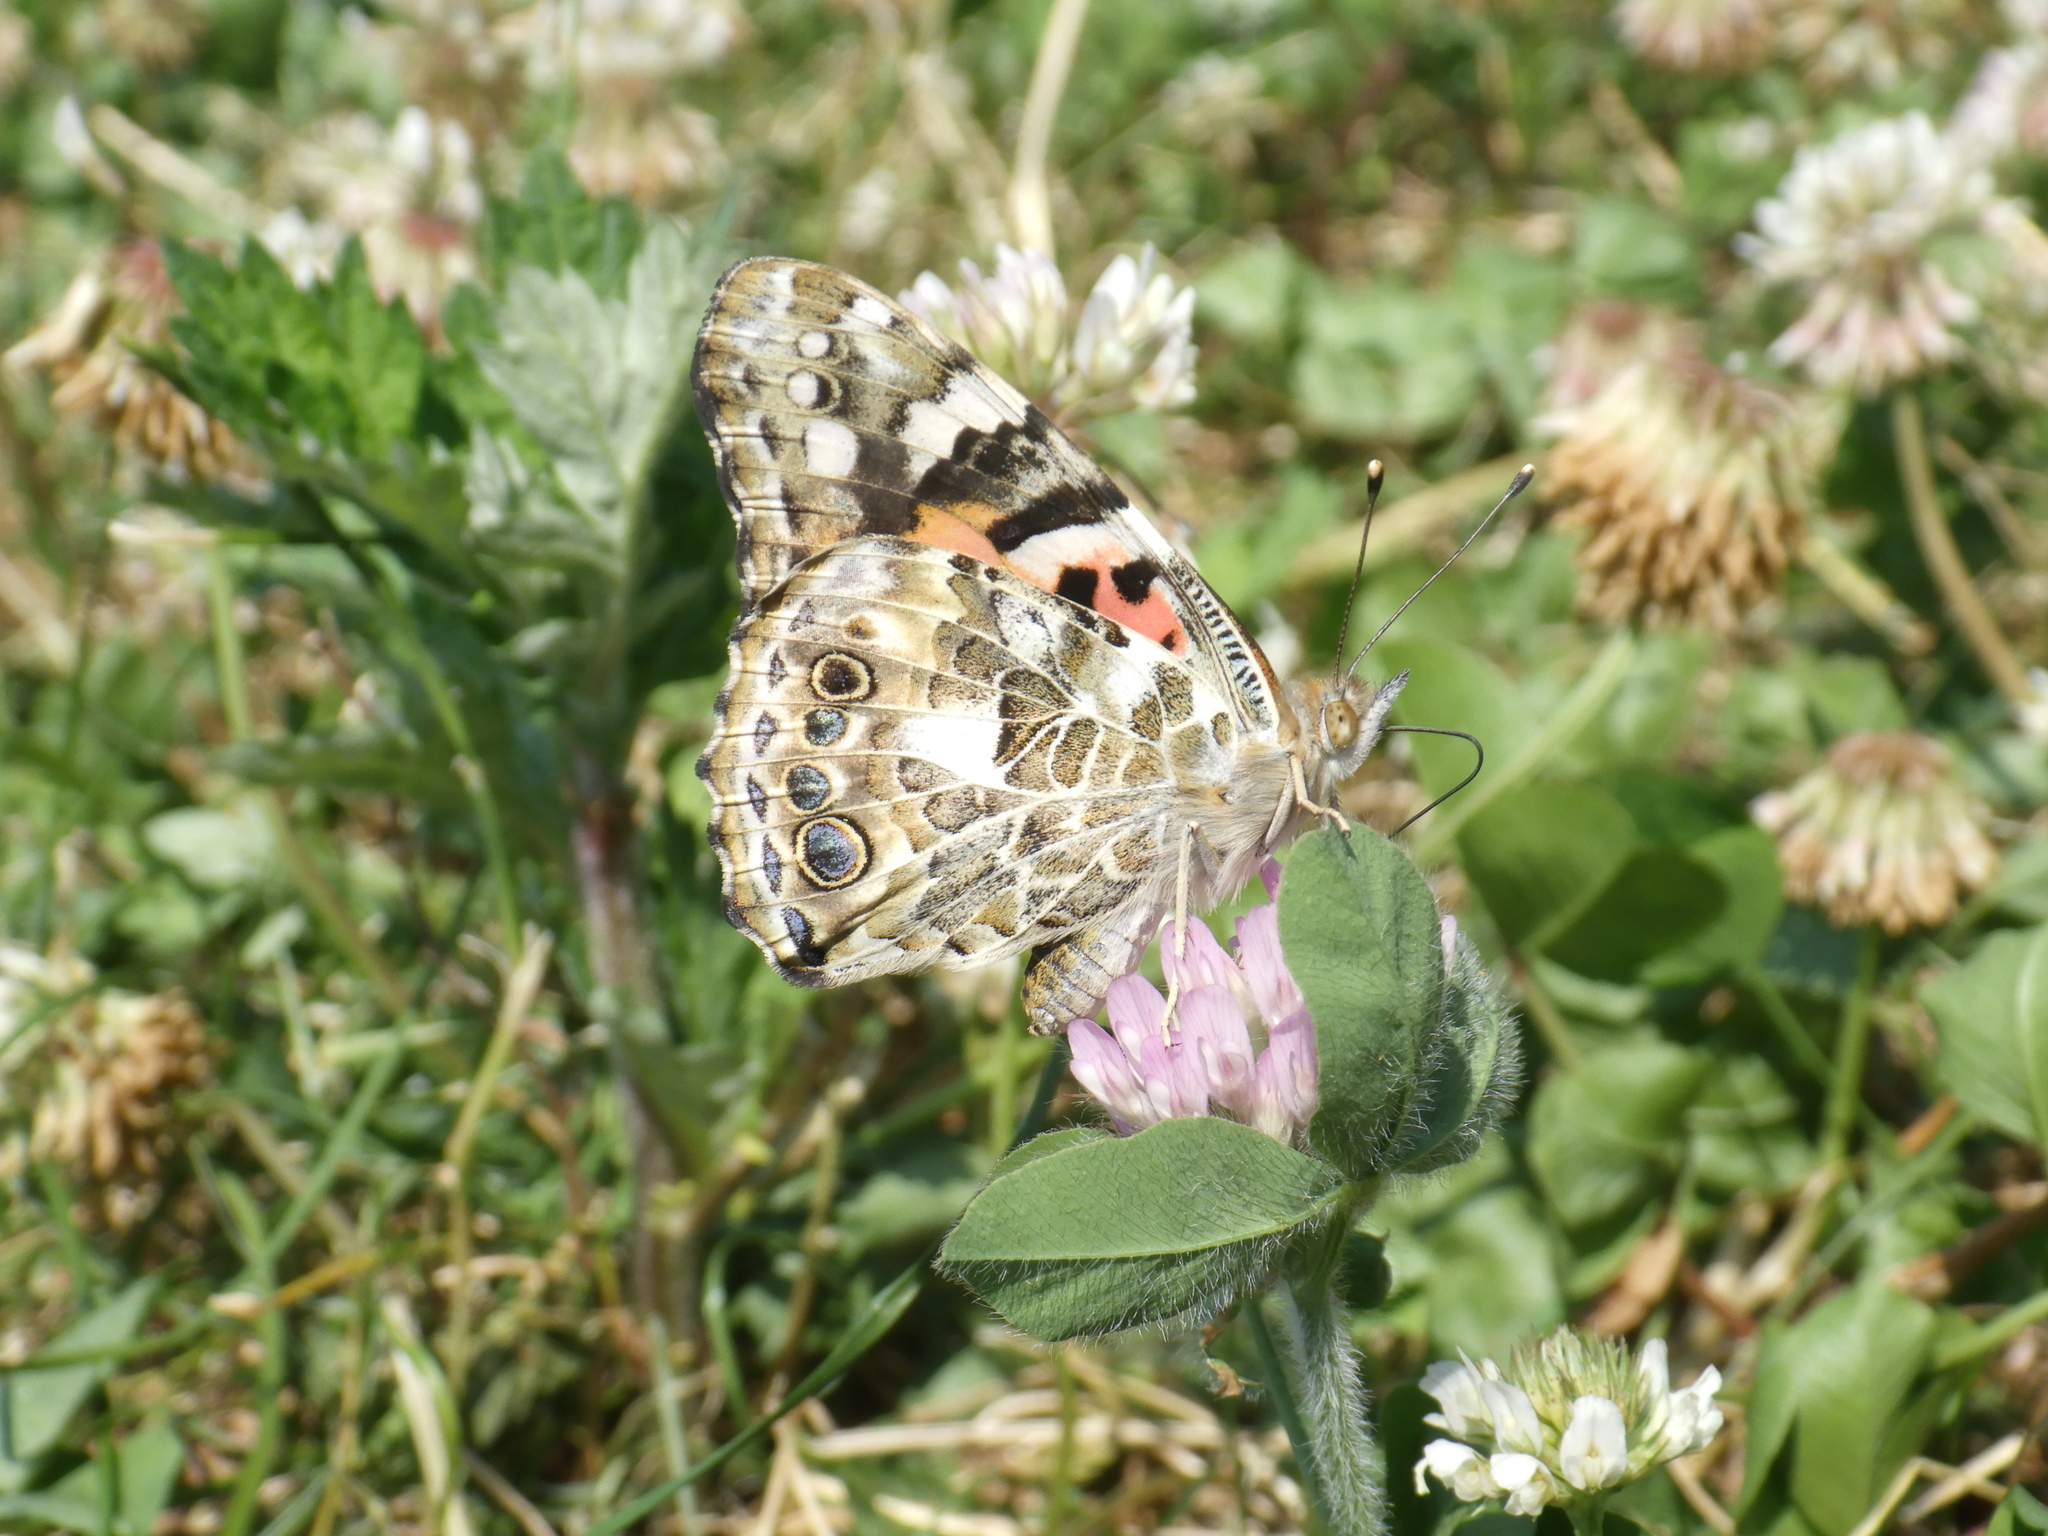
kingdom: Animalia
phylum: Arthropoda
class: Insecta
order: Lepidoptera
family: Nymphalidae
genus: Vanessa
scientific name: Vanessa cardui
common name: Painted lady
